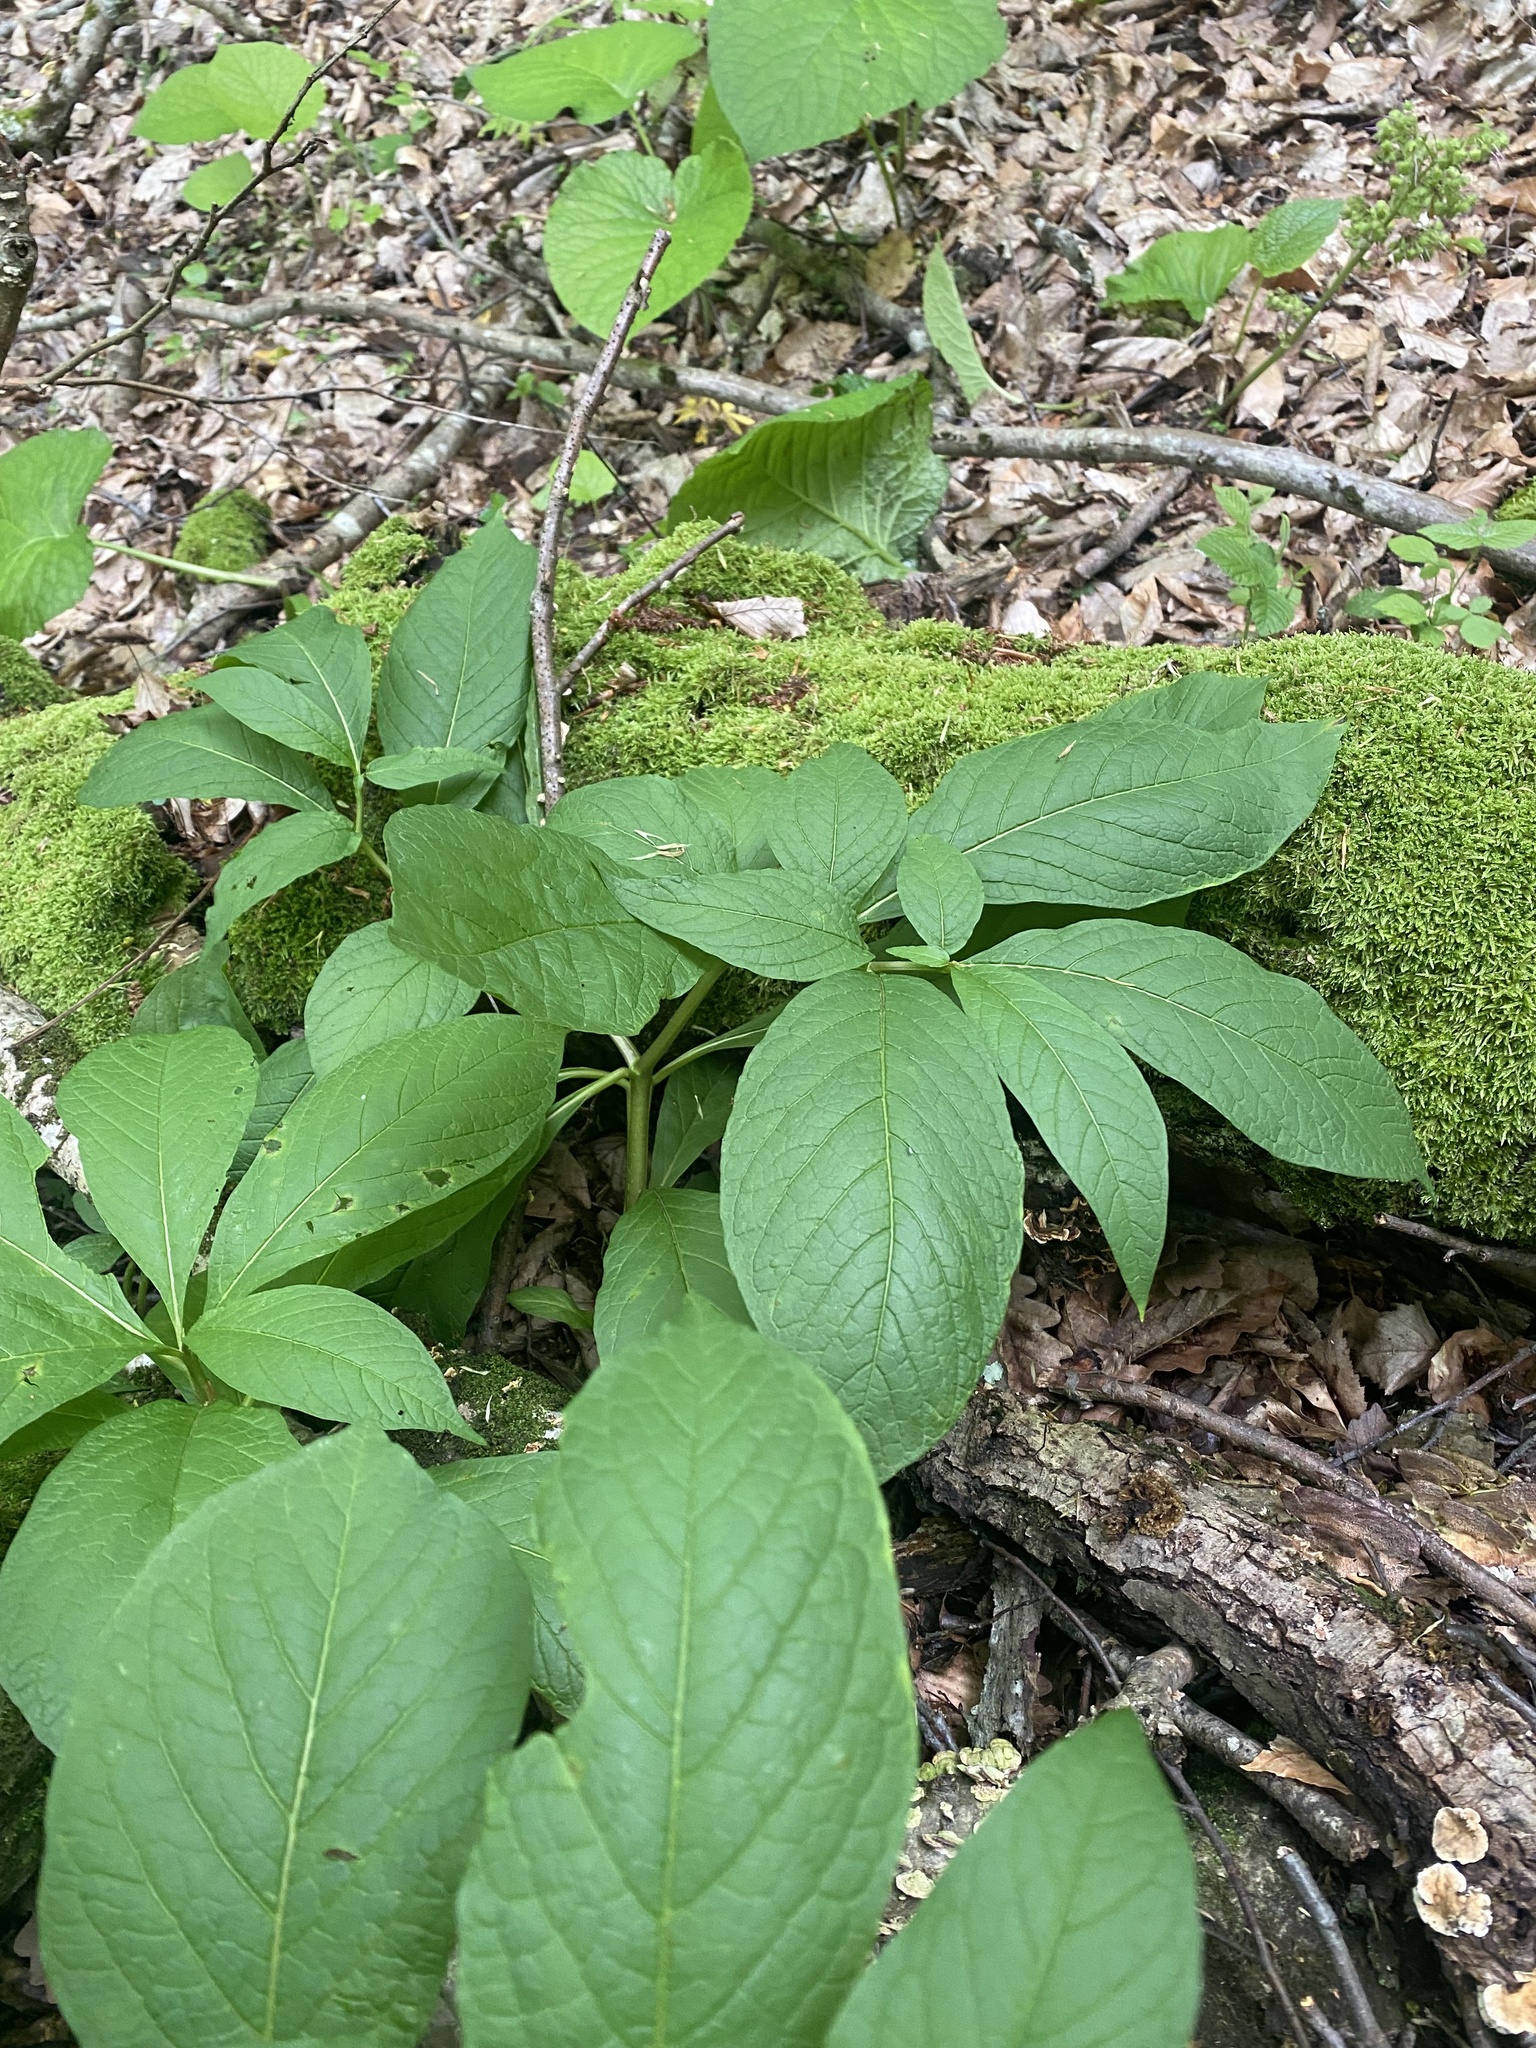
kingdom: Plantae
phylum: Tracheophyta
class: Magnoliopsida
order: Solanales
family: Solanaceae
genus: Scopolia
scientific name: Scopolia carniolica
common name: Scopolia
